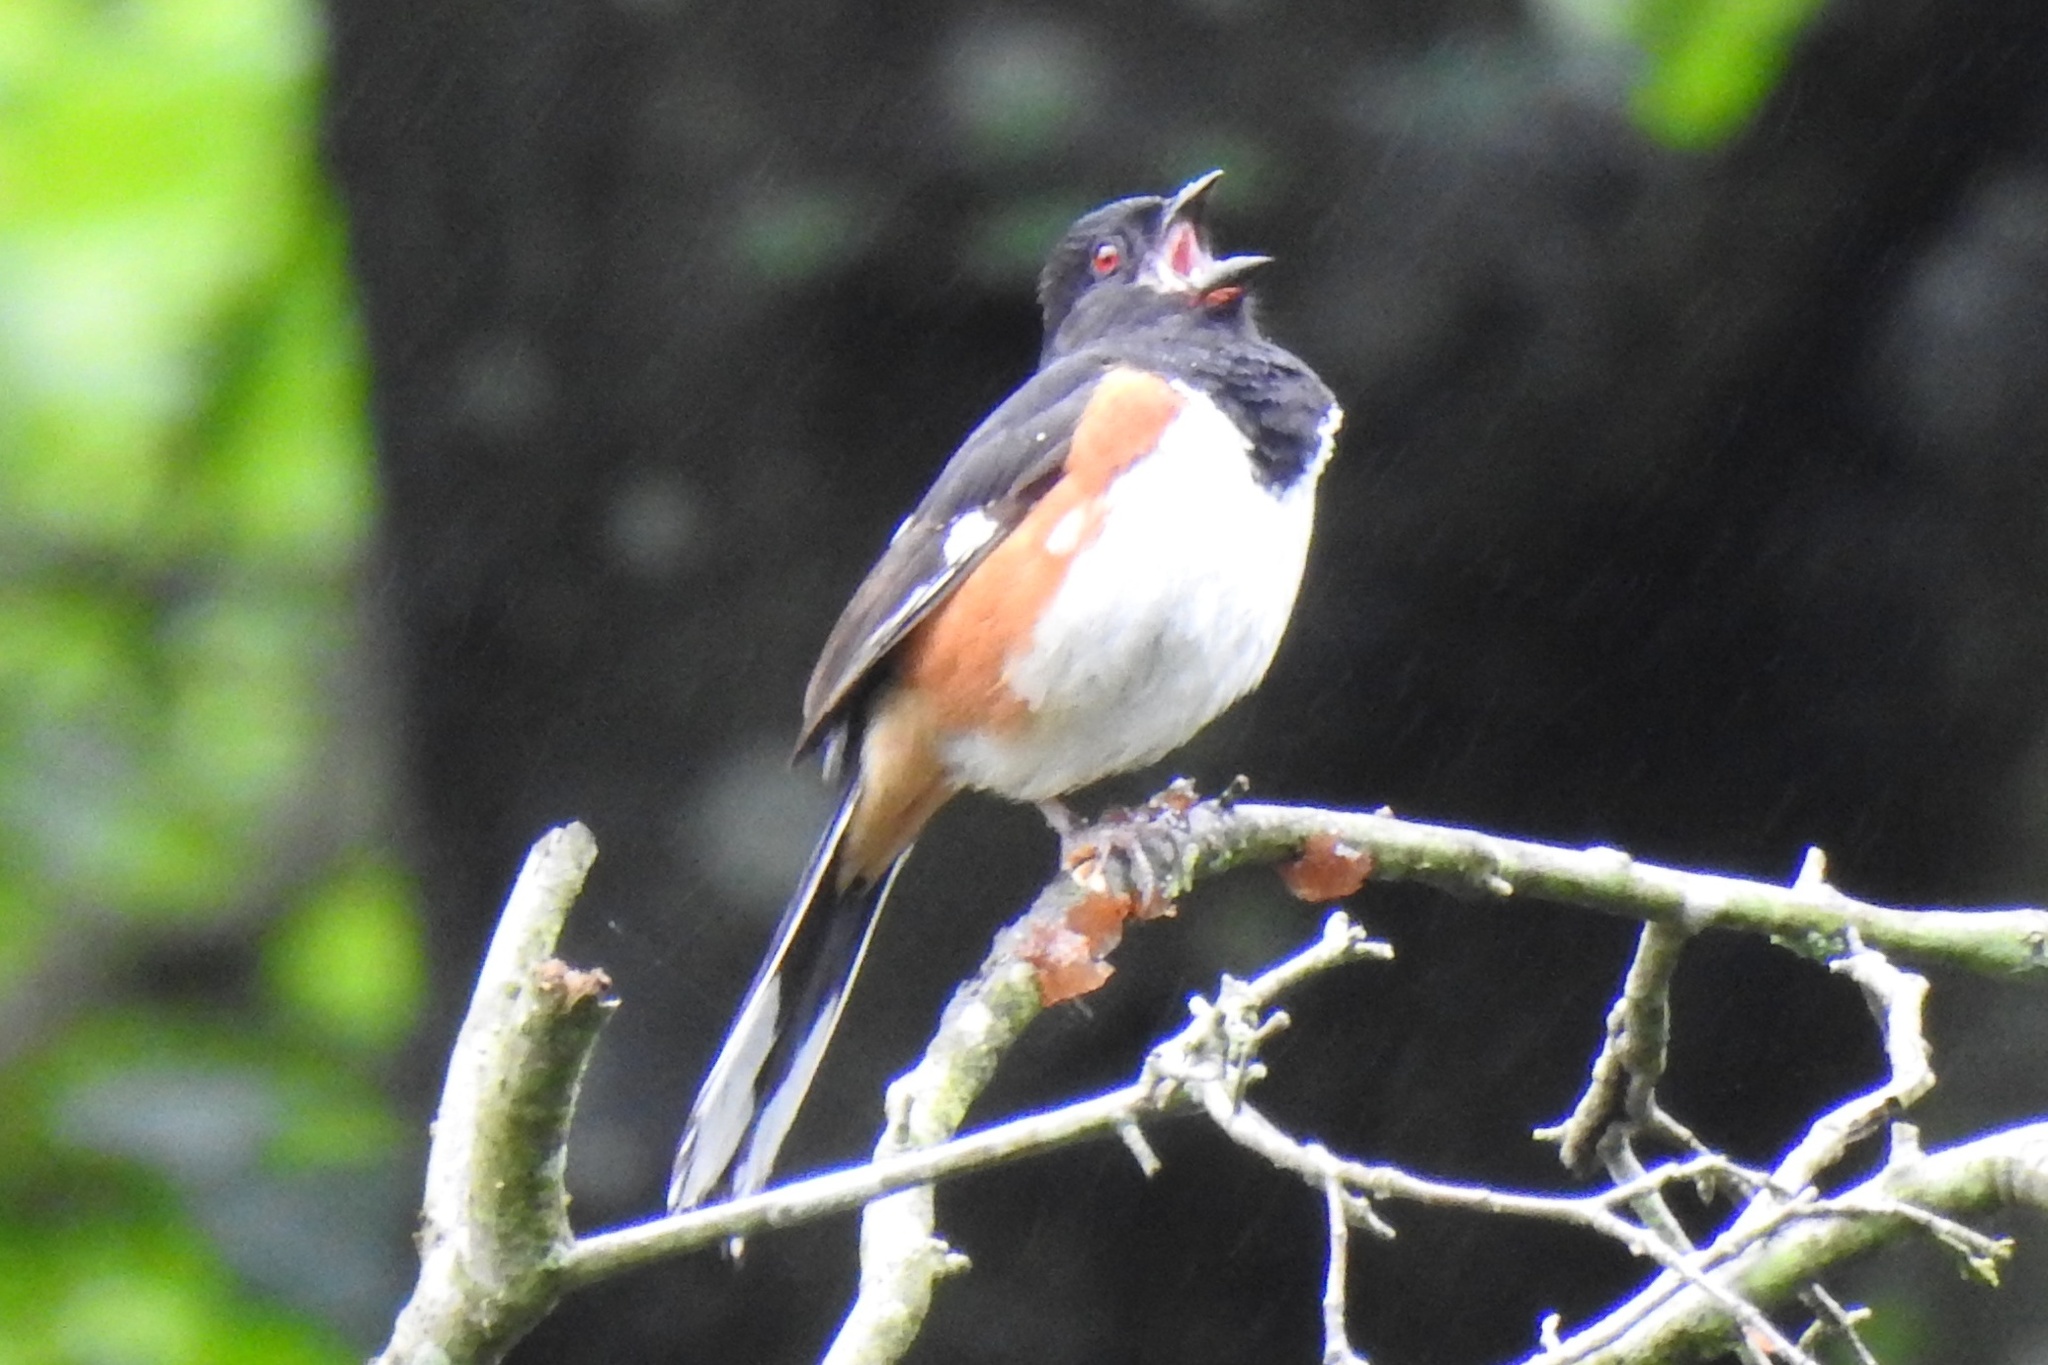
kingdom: Animalia
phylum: Chordata
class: Aves
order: Passeriformes
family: Passerellidae
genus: Pipilo
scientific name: Pipilo erythrophthalmus
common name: Eastern towhee
